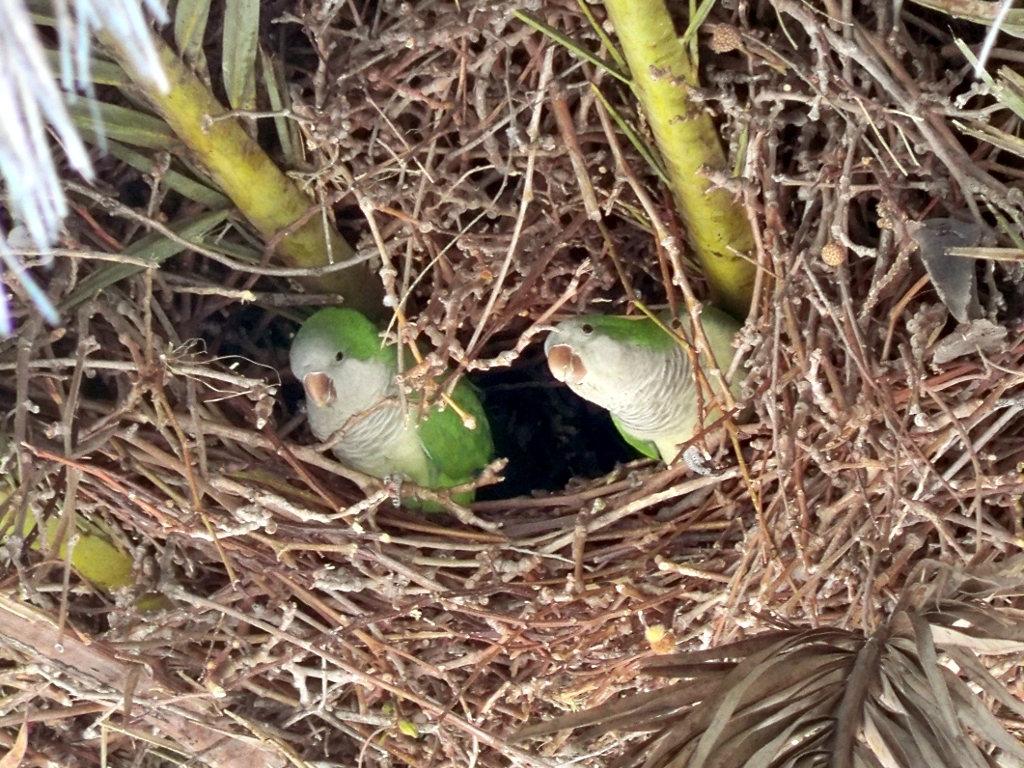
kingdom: Animalia
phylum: Chordata
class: Aves
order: Psittaciformes
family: Psittacidae
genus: Myiopsitta
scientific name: Myiopsitta monachus
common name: Monk parakeet
